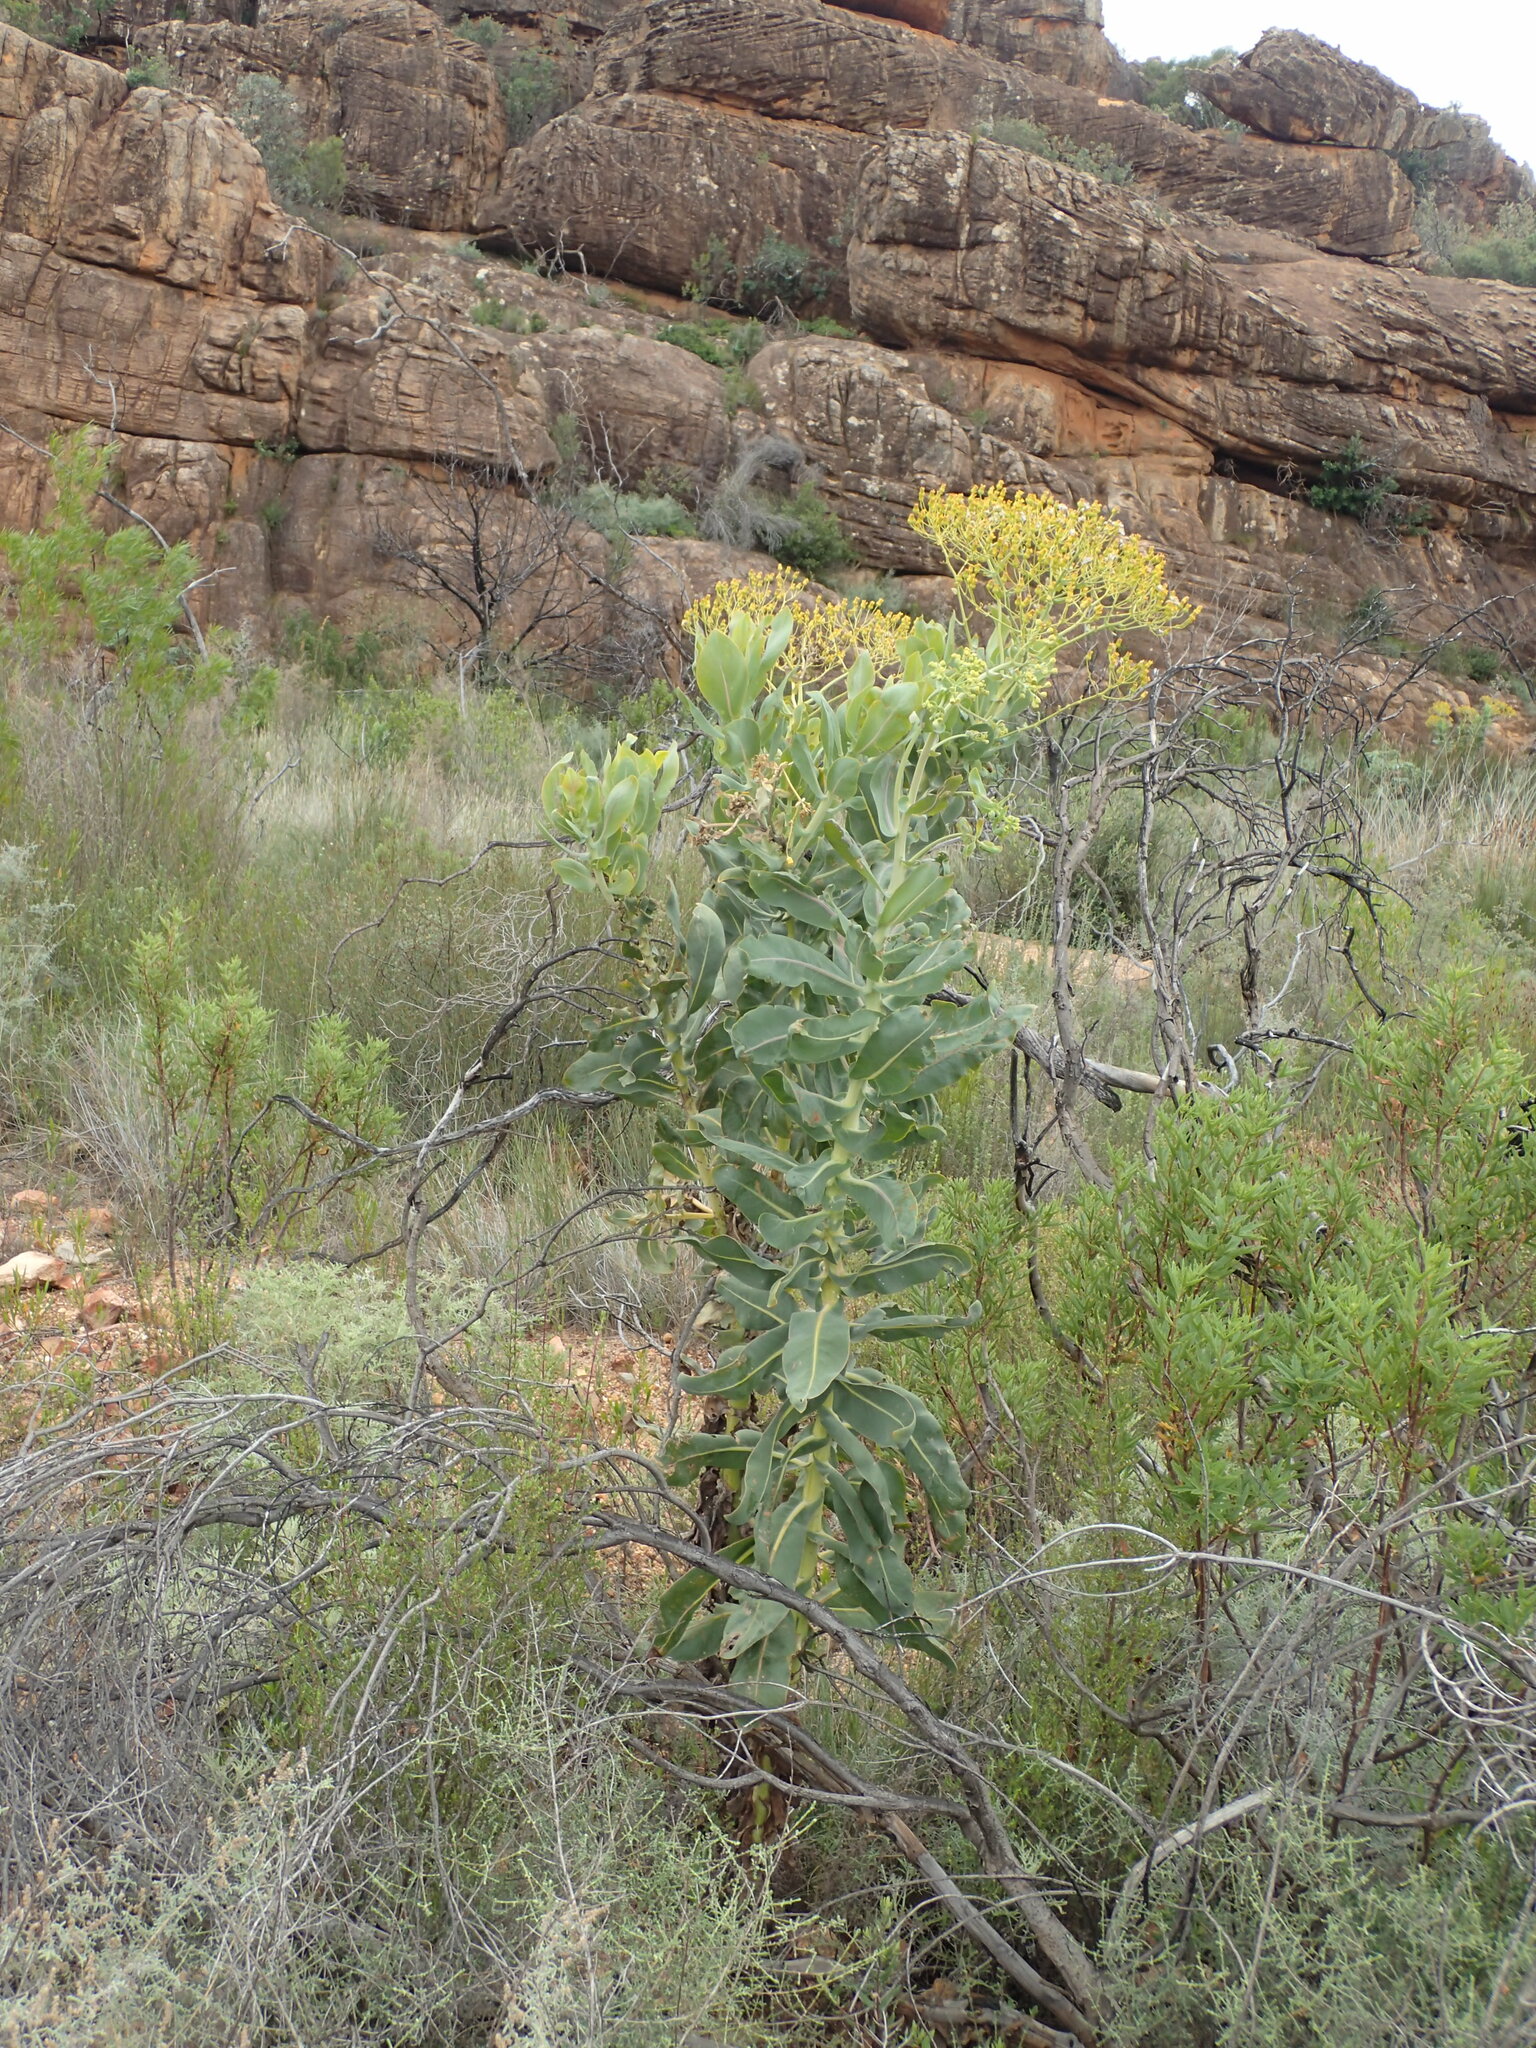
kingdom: Plantae
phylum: Tracheophyta
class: Magnoliopsida
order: Asterales
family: Asteraceae
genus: Othonna
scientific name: Othonna parviflora
